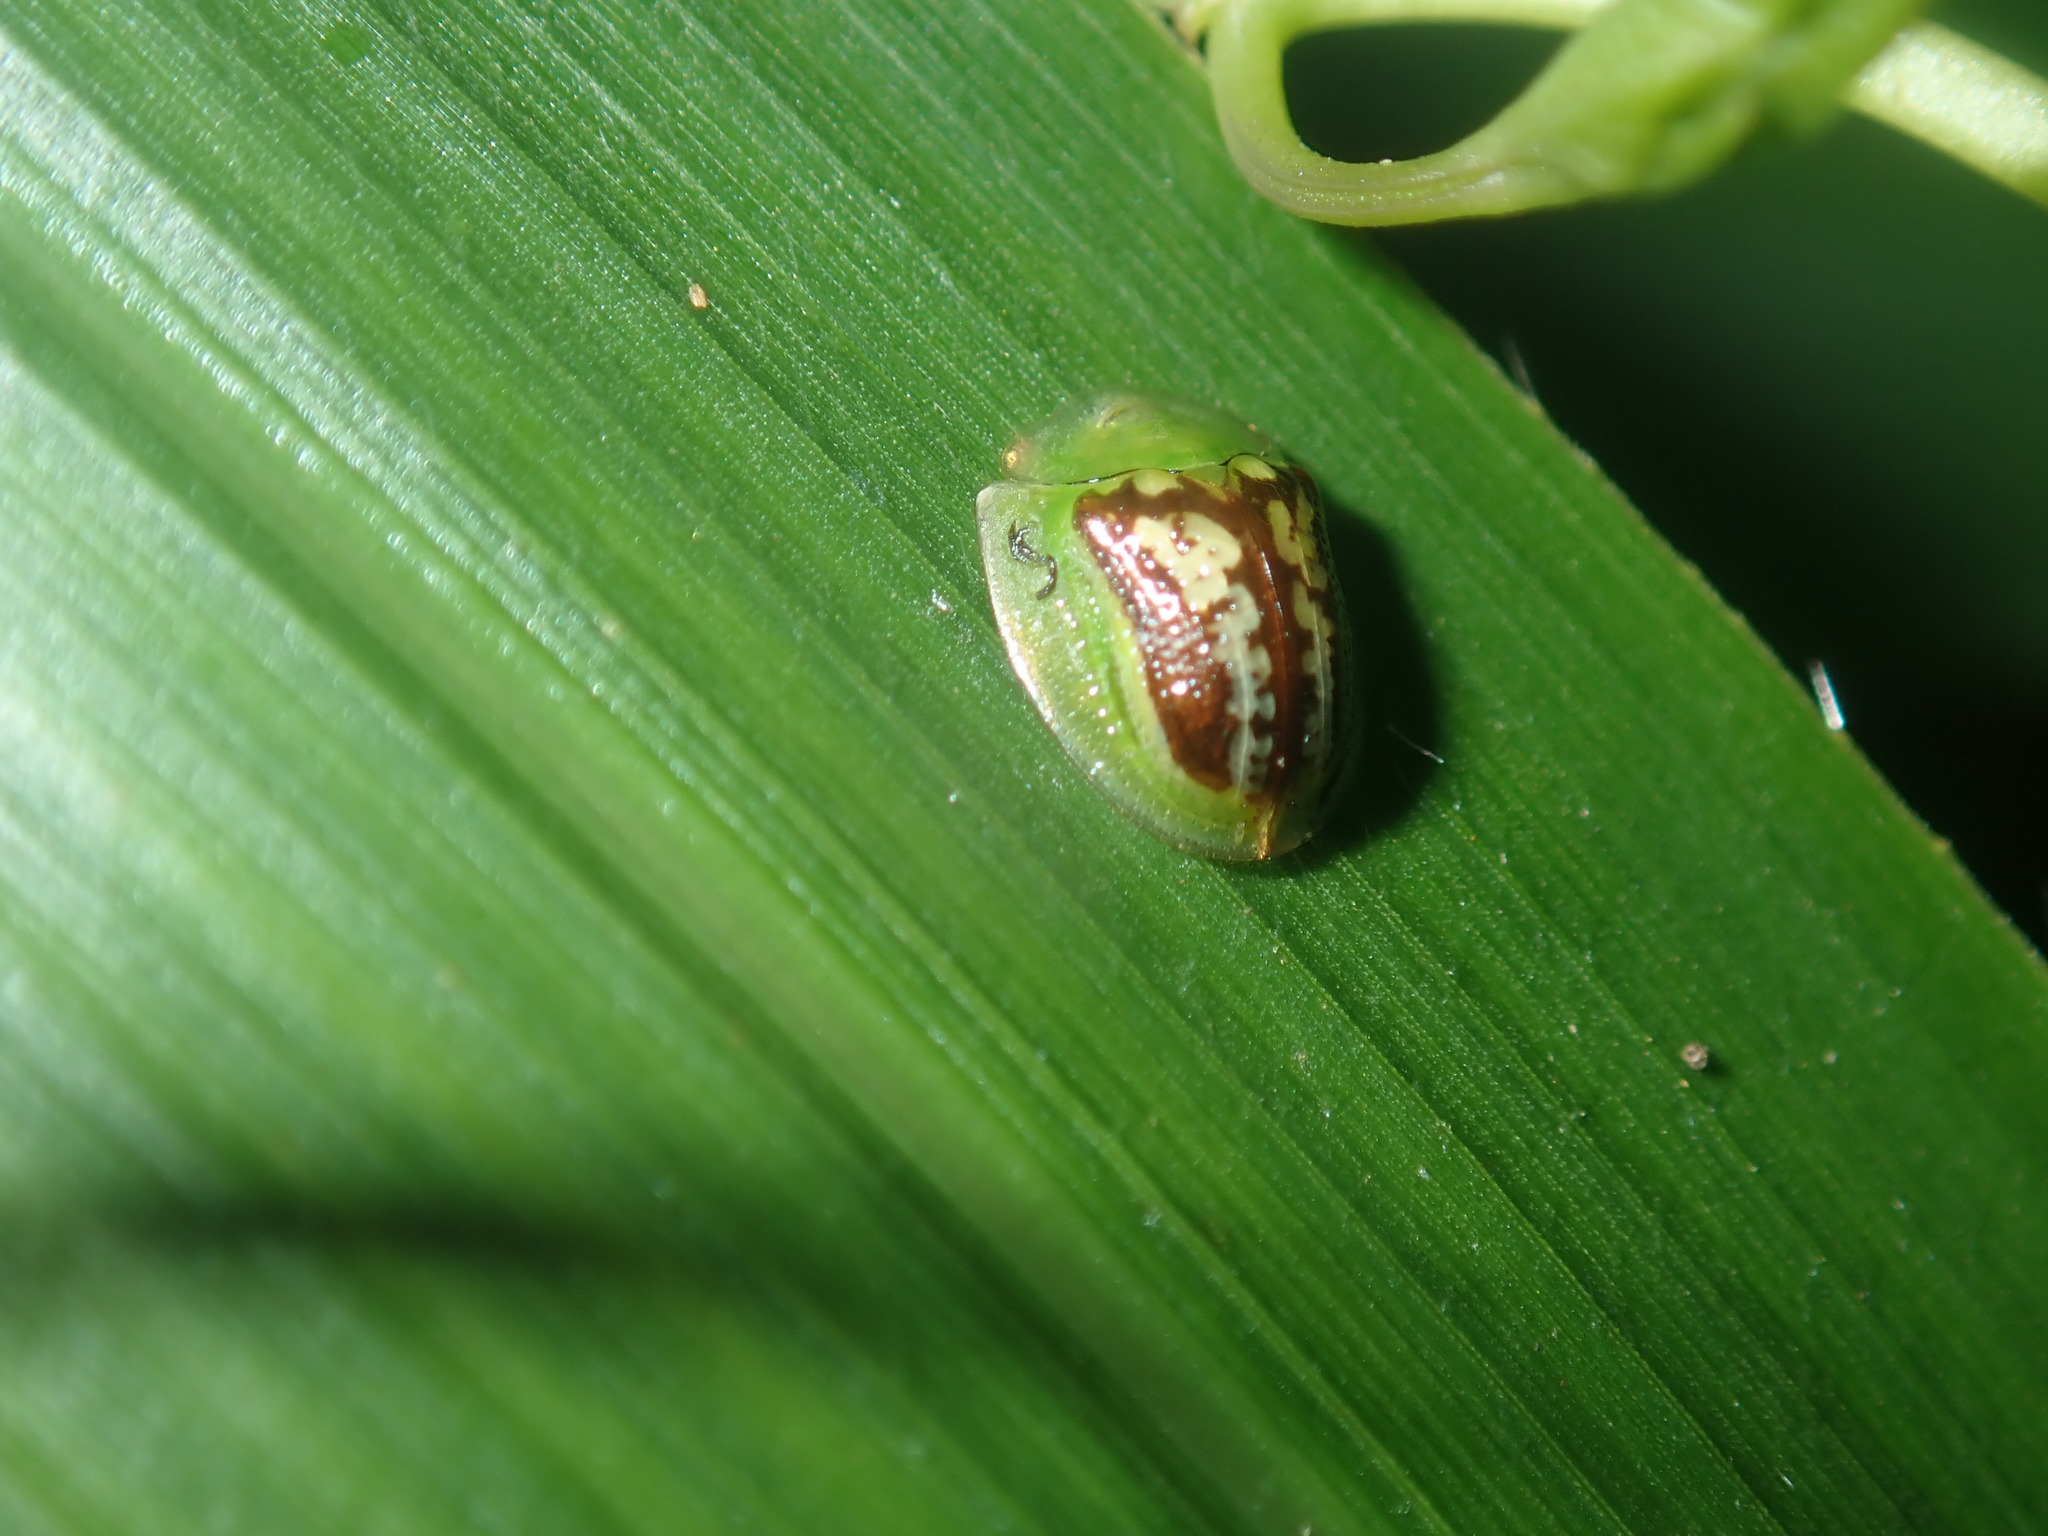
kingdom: Animalia
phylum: Arthropoda
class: Insecta
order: Coleoptera
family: Chrysomelidae
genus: Cassida
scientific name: Cassida compuncta
